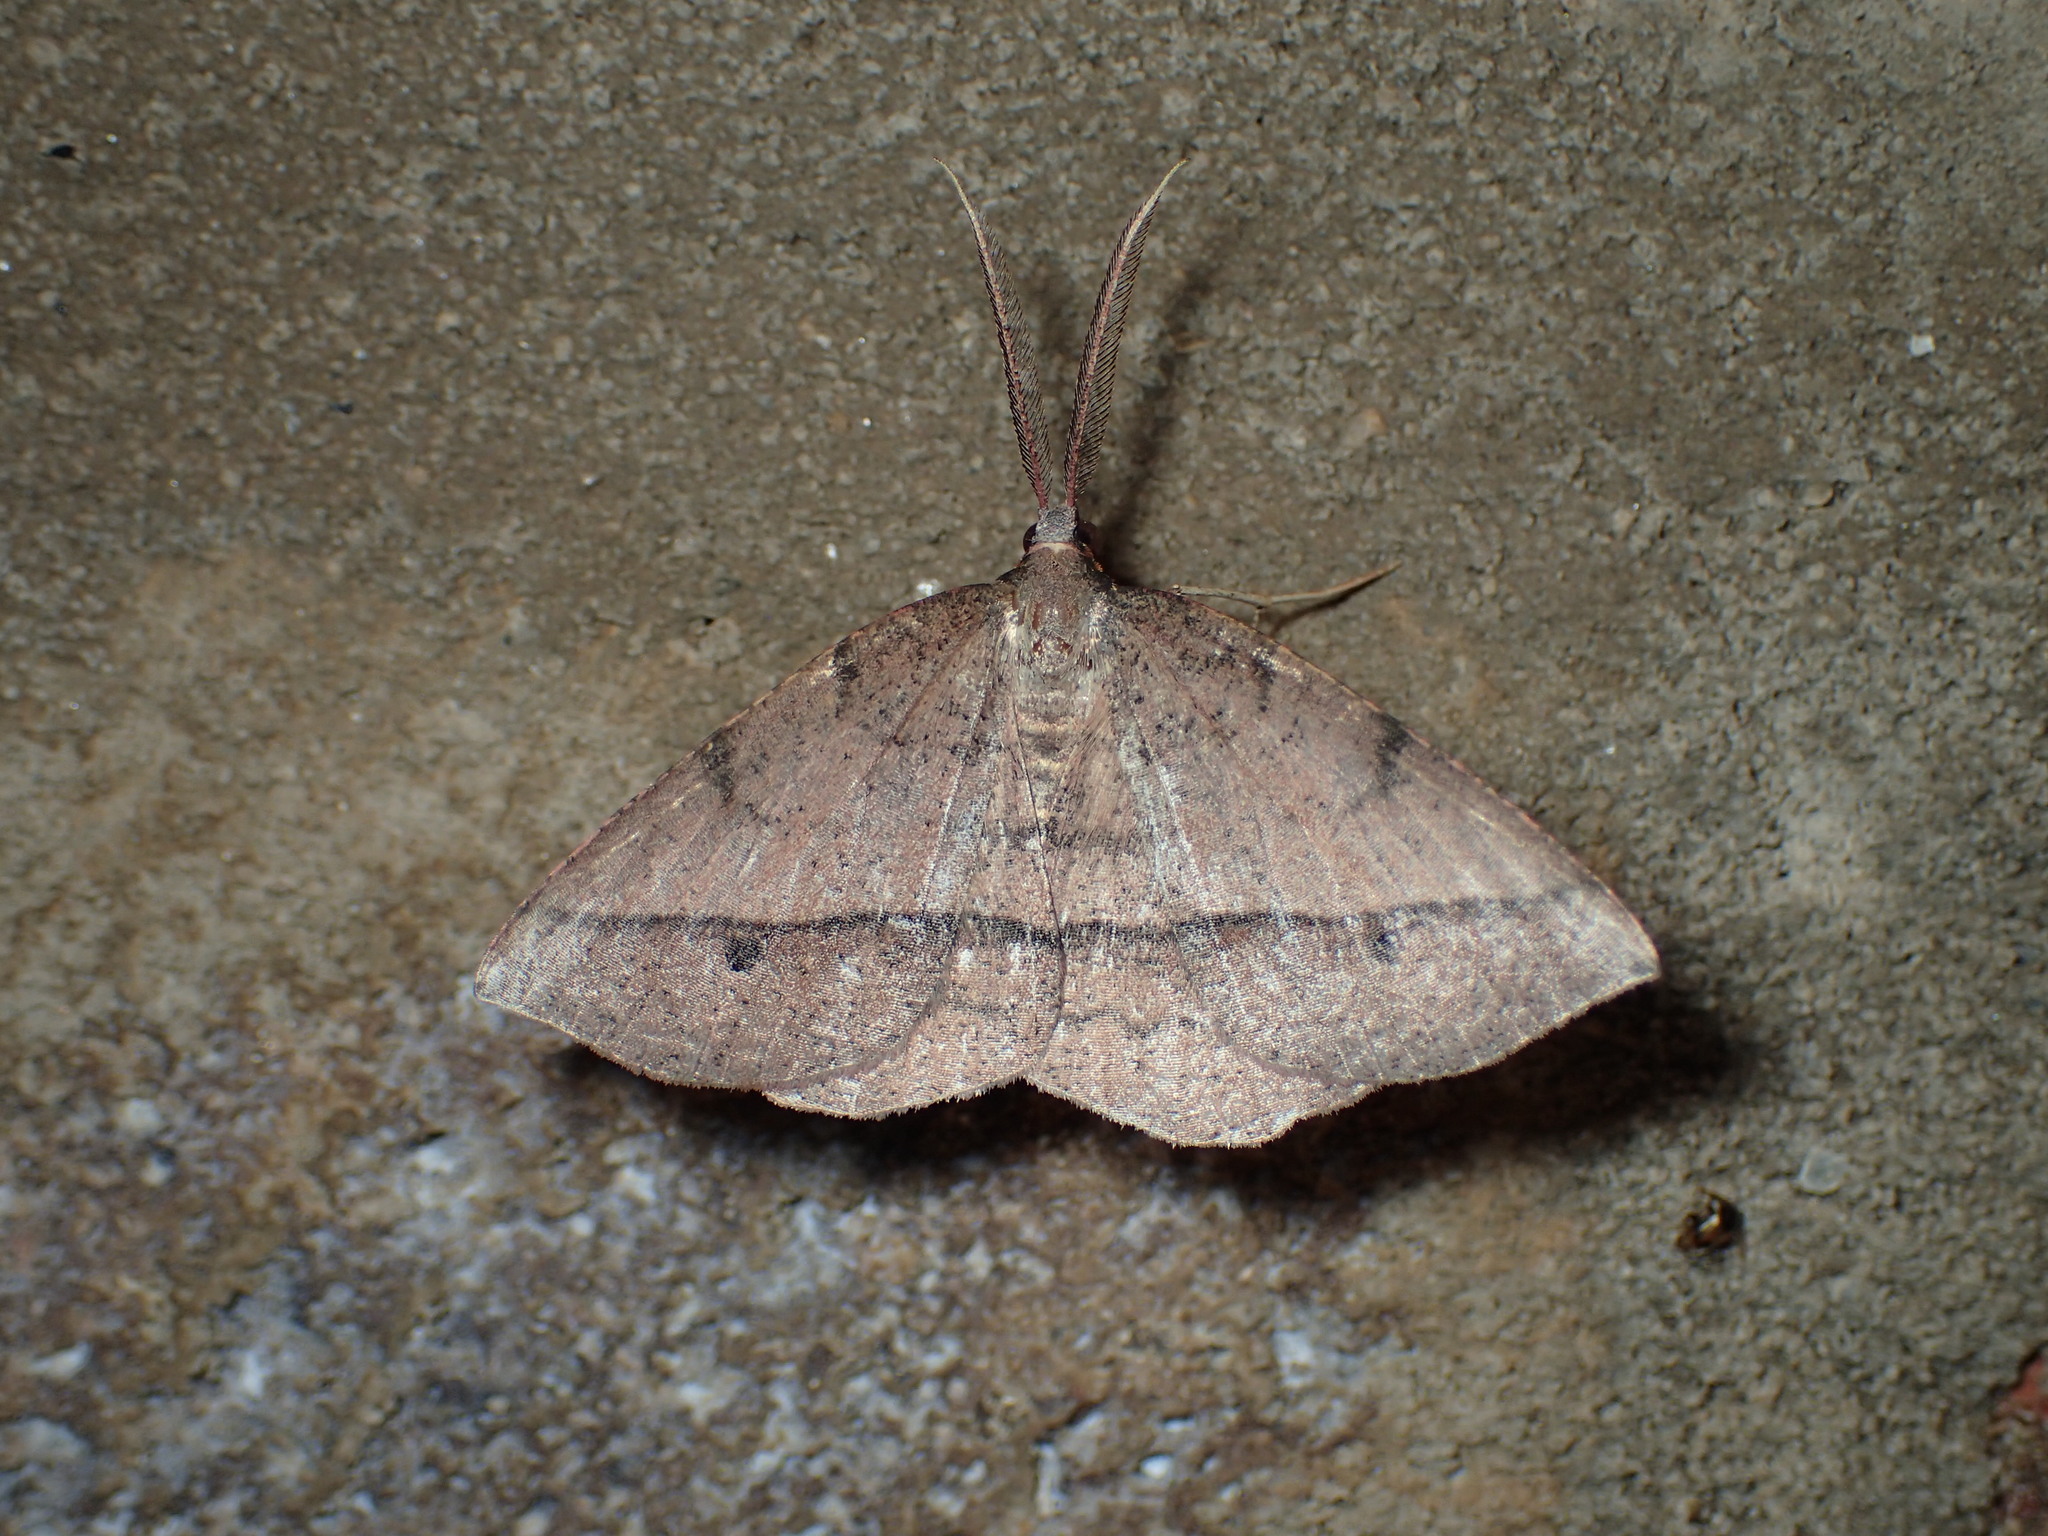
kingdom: Animalia
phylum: Arthropoda
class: Insecta
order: Lepidoptera
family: Geometridae
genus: Erastria
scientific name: Erastria cruentaria
